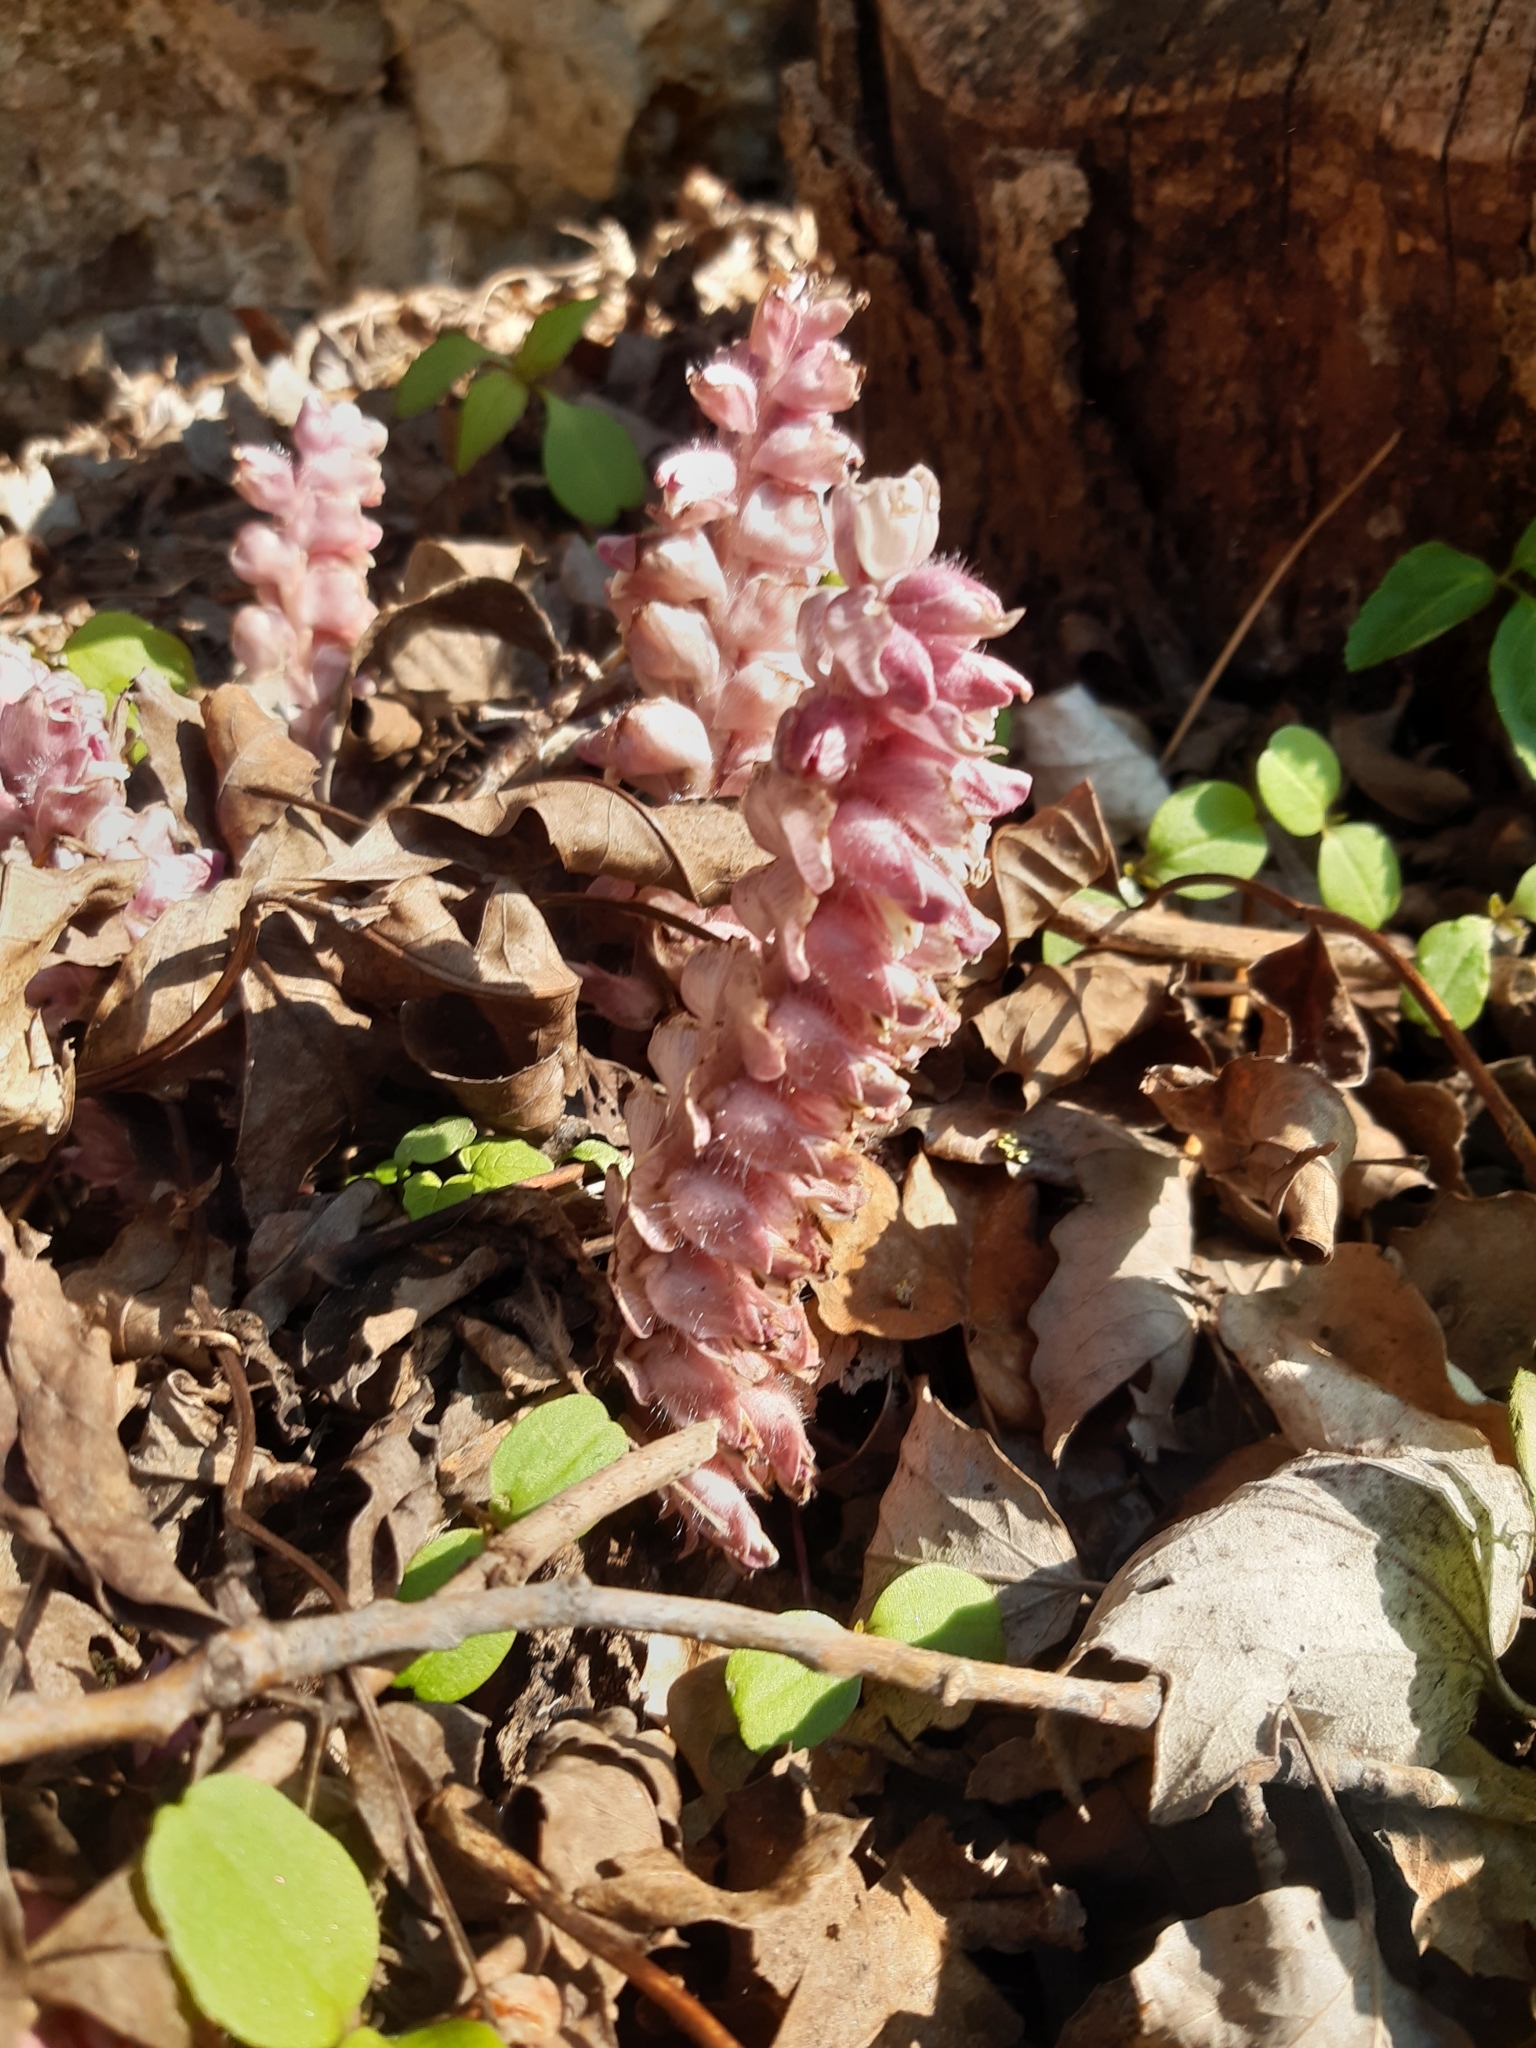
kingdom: Plantae
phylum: Tracheophyta
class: Magnoliopsida
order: Lamiales
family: Orobanchaceae
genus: Lathraea
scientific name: Lathraea squamaria
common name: Toothwort
